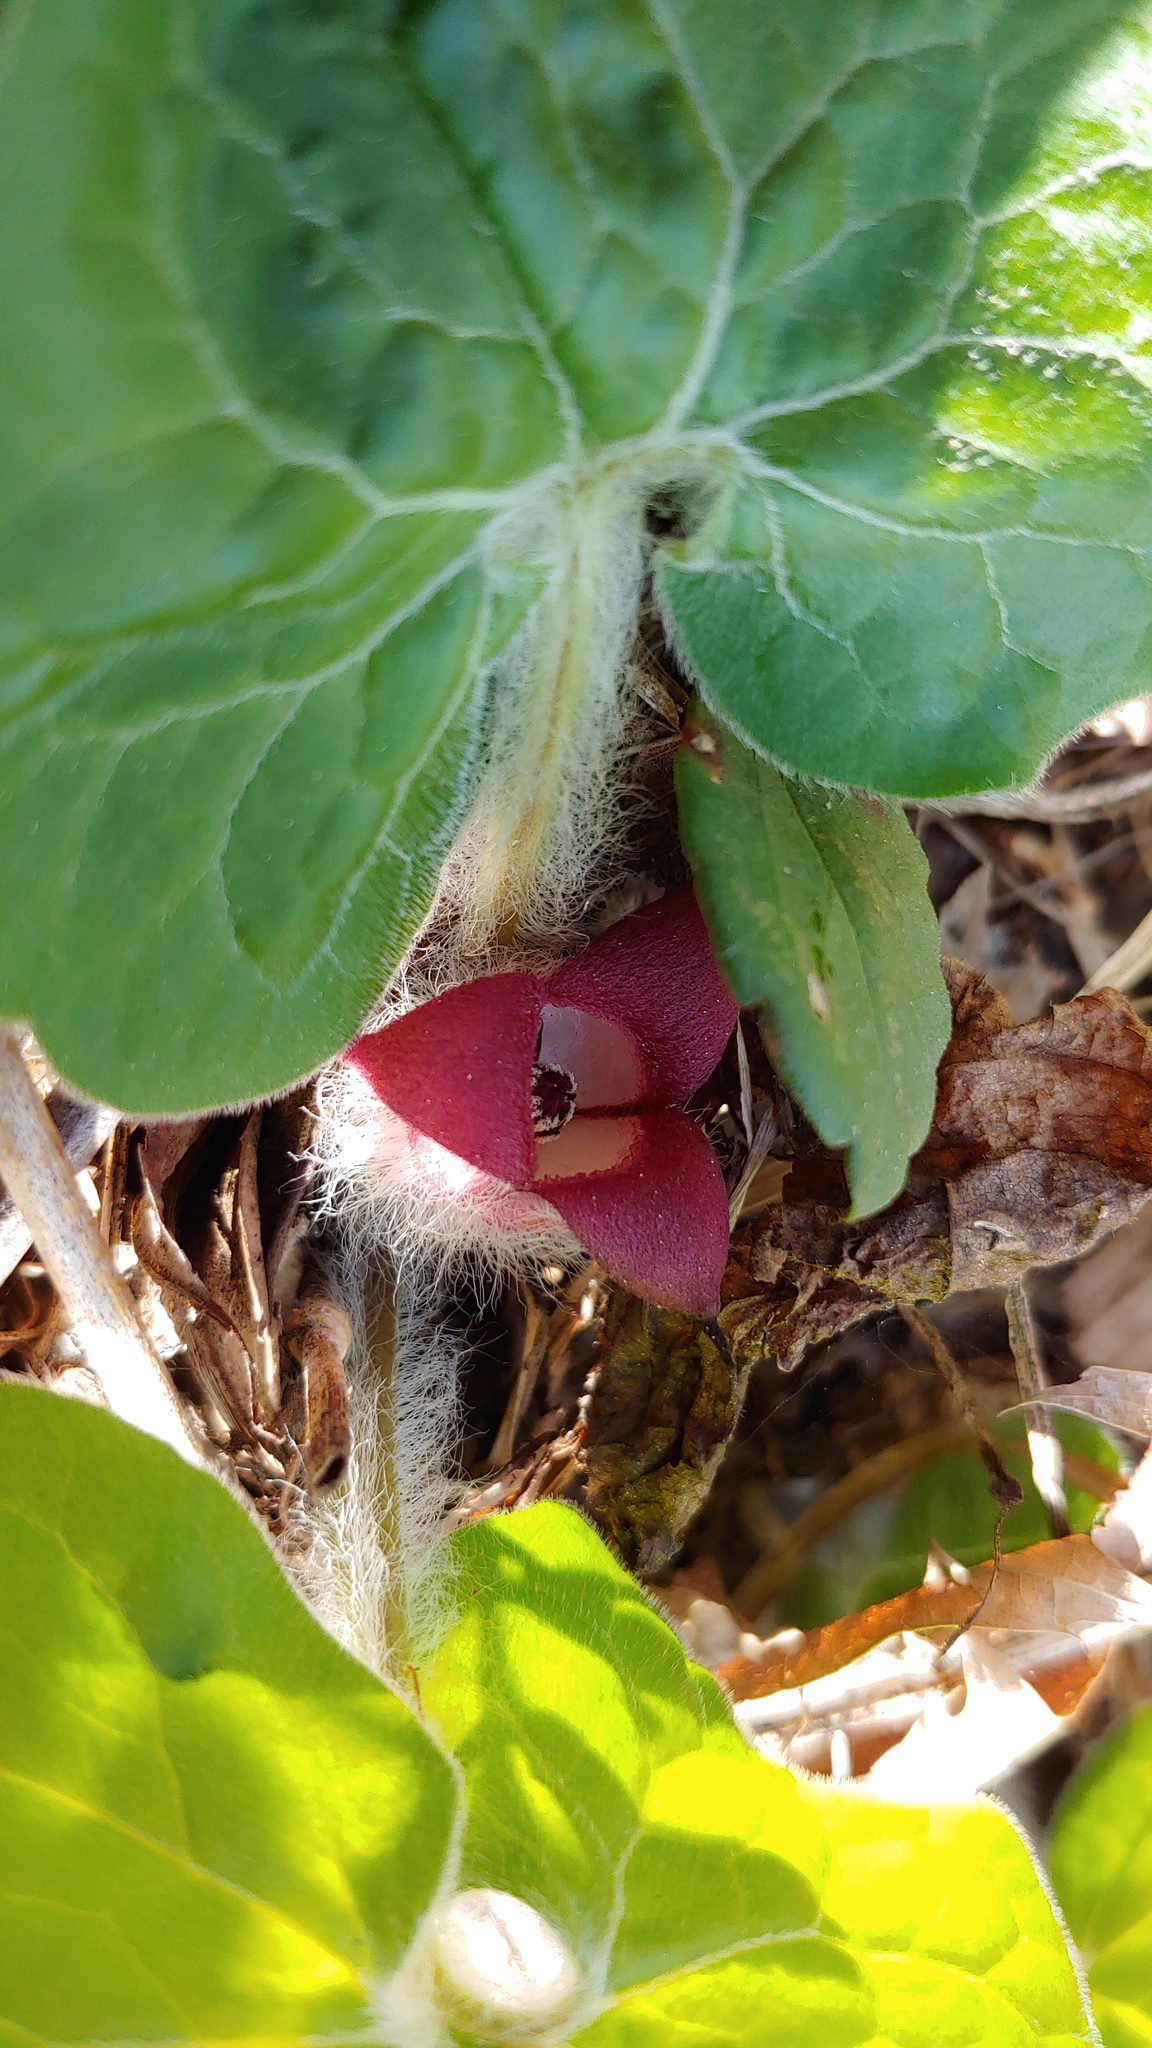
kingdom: Plantae
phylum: Tracheophyta
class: Magnoliopsida
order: Piperales
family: Aristolochiaceae
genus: Asarum
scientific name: Asarum canadense
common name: Wild ginger
